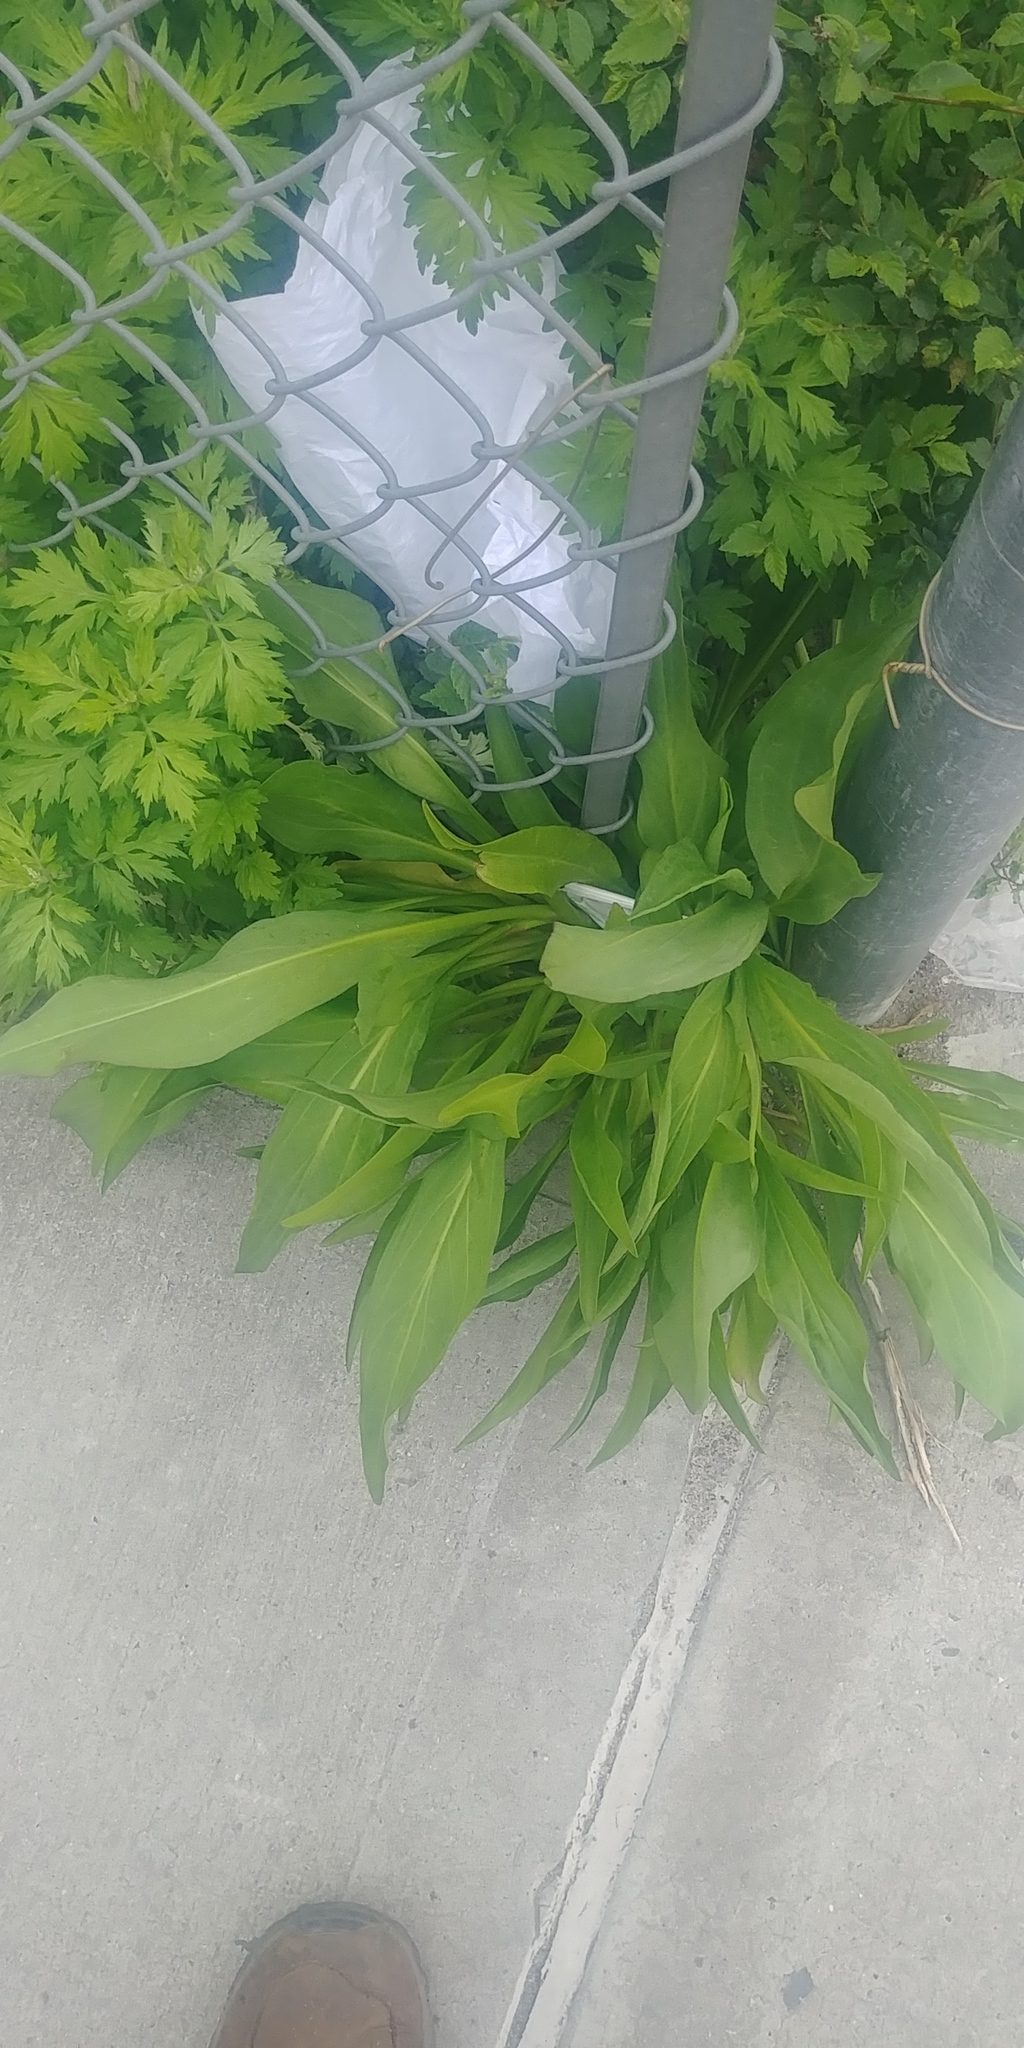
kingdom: Plantae
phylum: Tracheophyta
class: Magnoliopsida
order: Asterales
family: Asteraceae
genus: Solidago
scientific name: Solidago sempervirens
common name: Salt-marsh goldenrod
